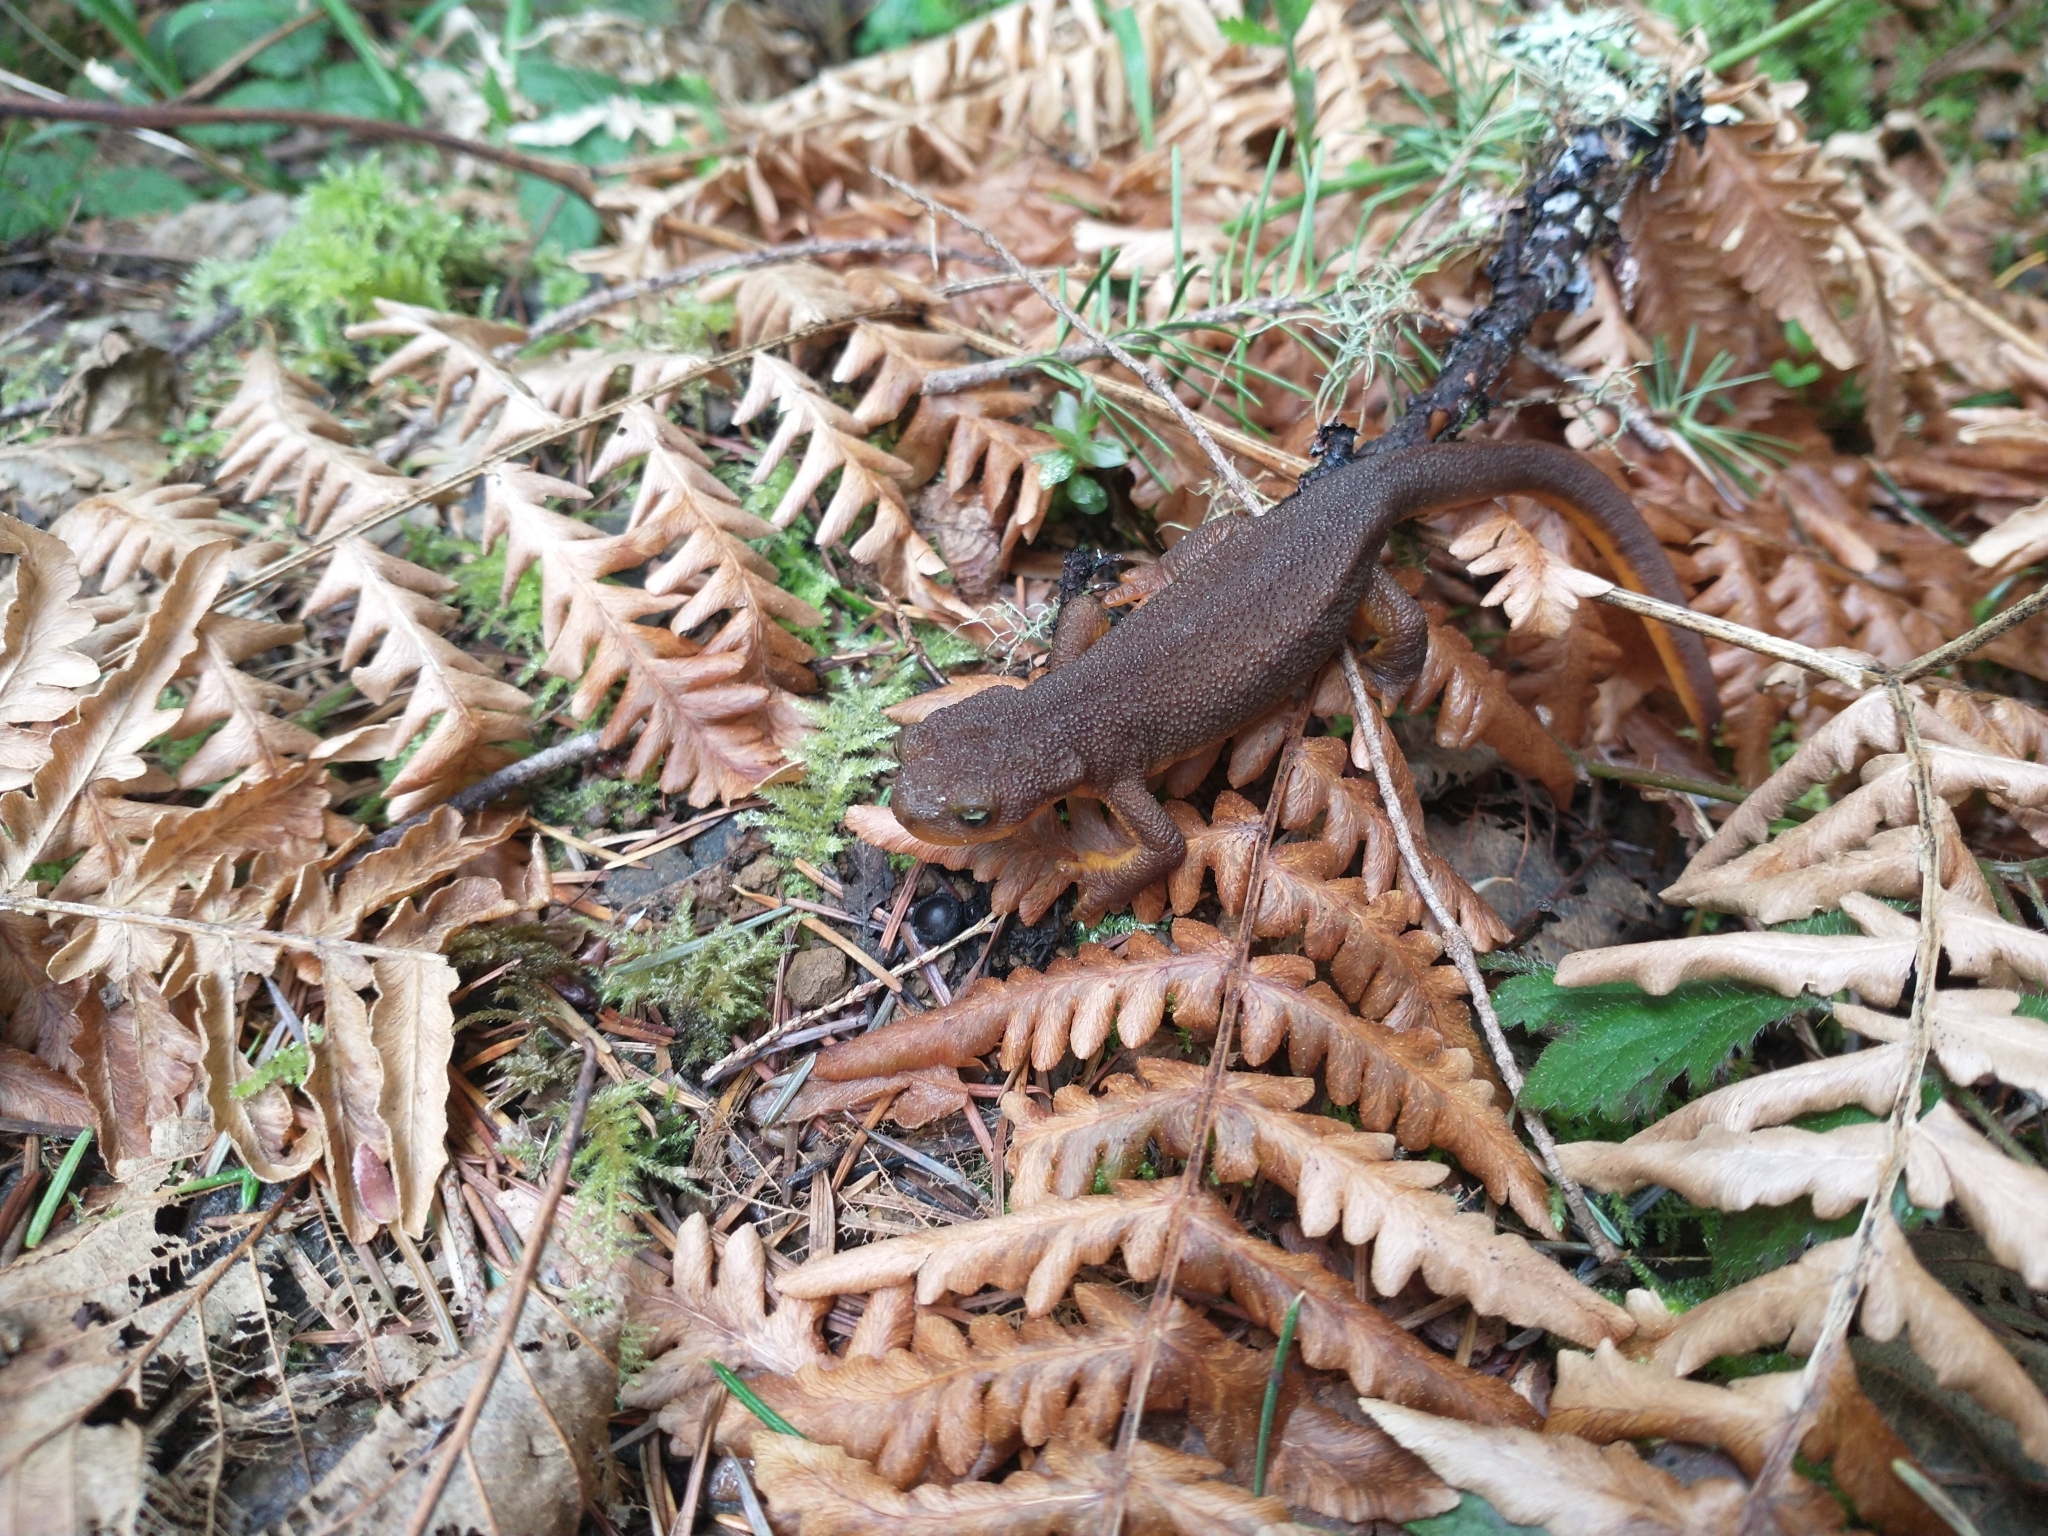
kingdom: Animalia
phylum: Chordata
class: Amphibia
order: Caudata
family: Salamandridae
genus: Taricha
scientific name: Taricha granulosa
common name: Roughskin newt
